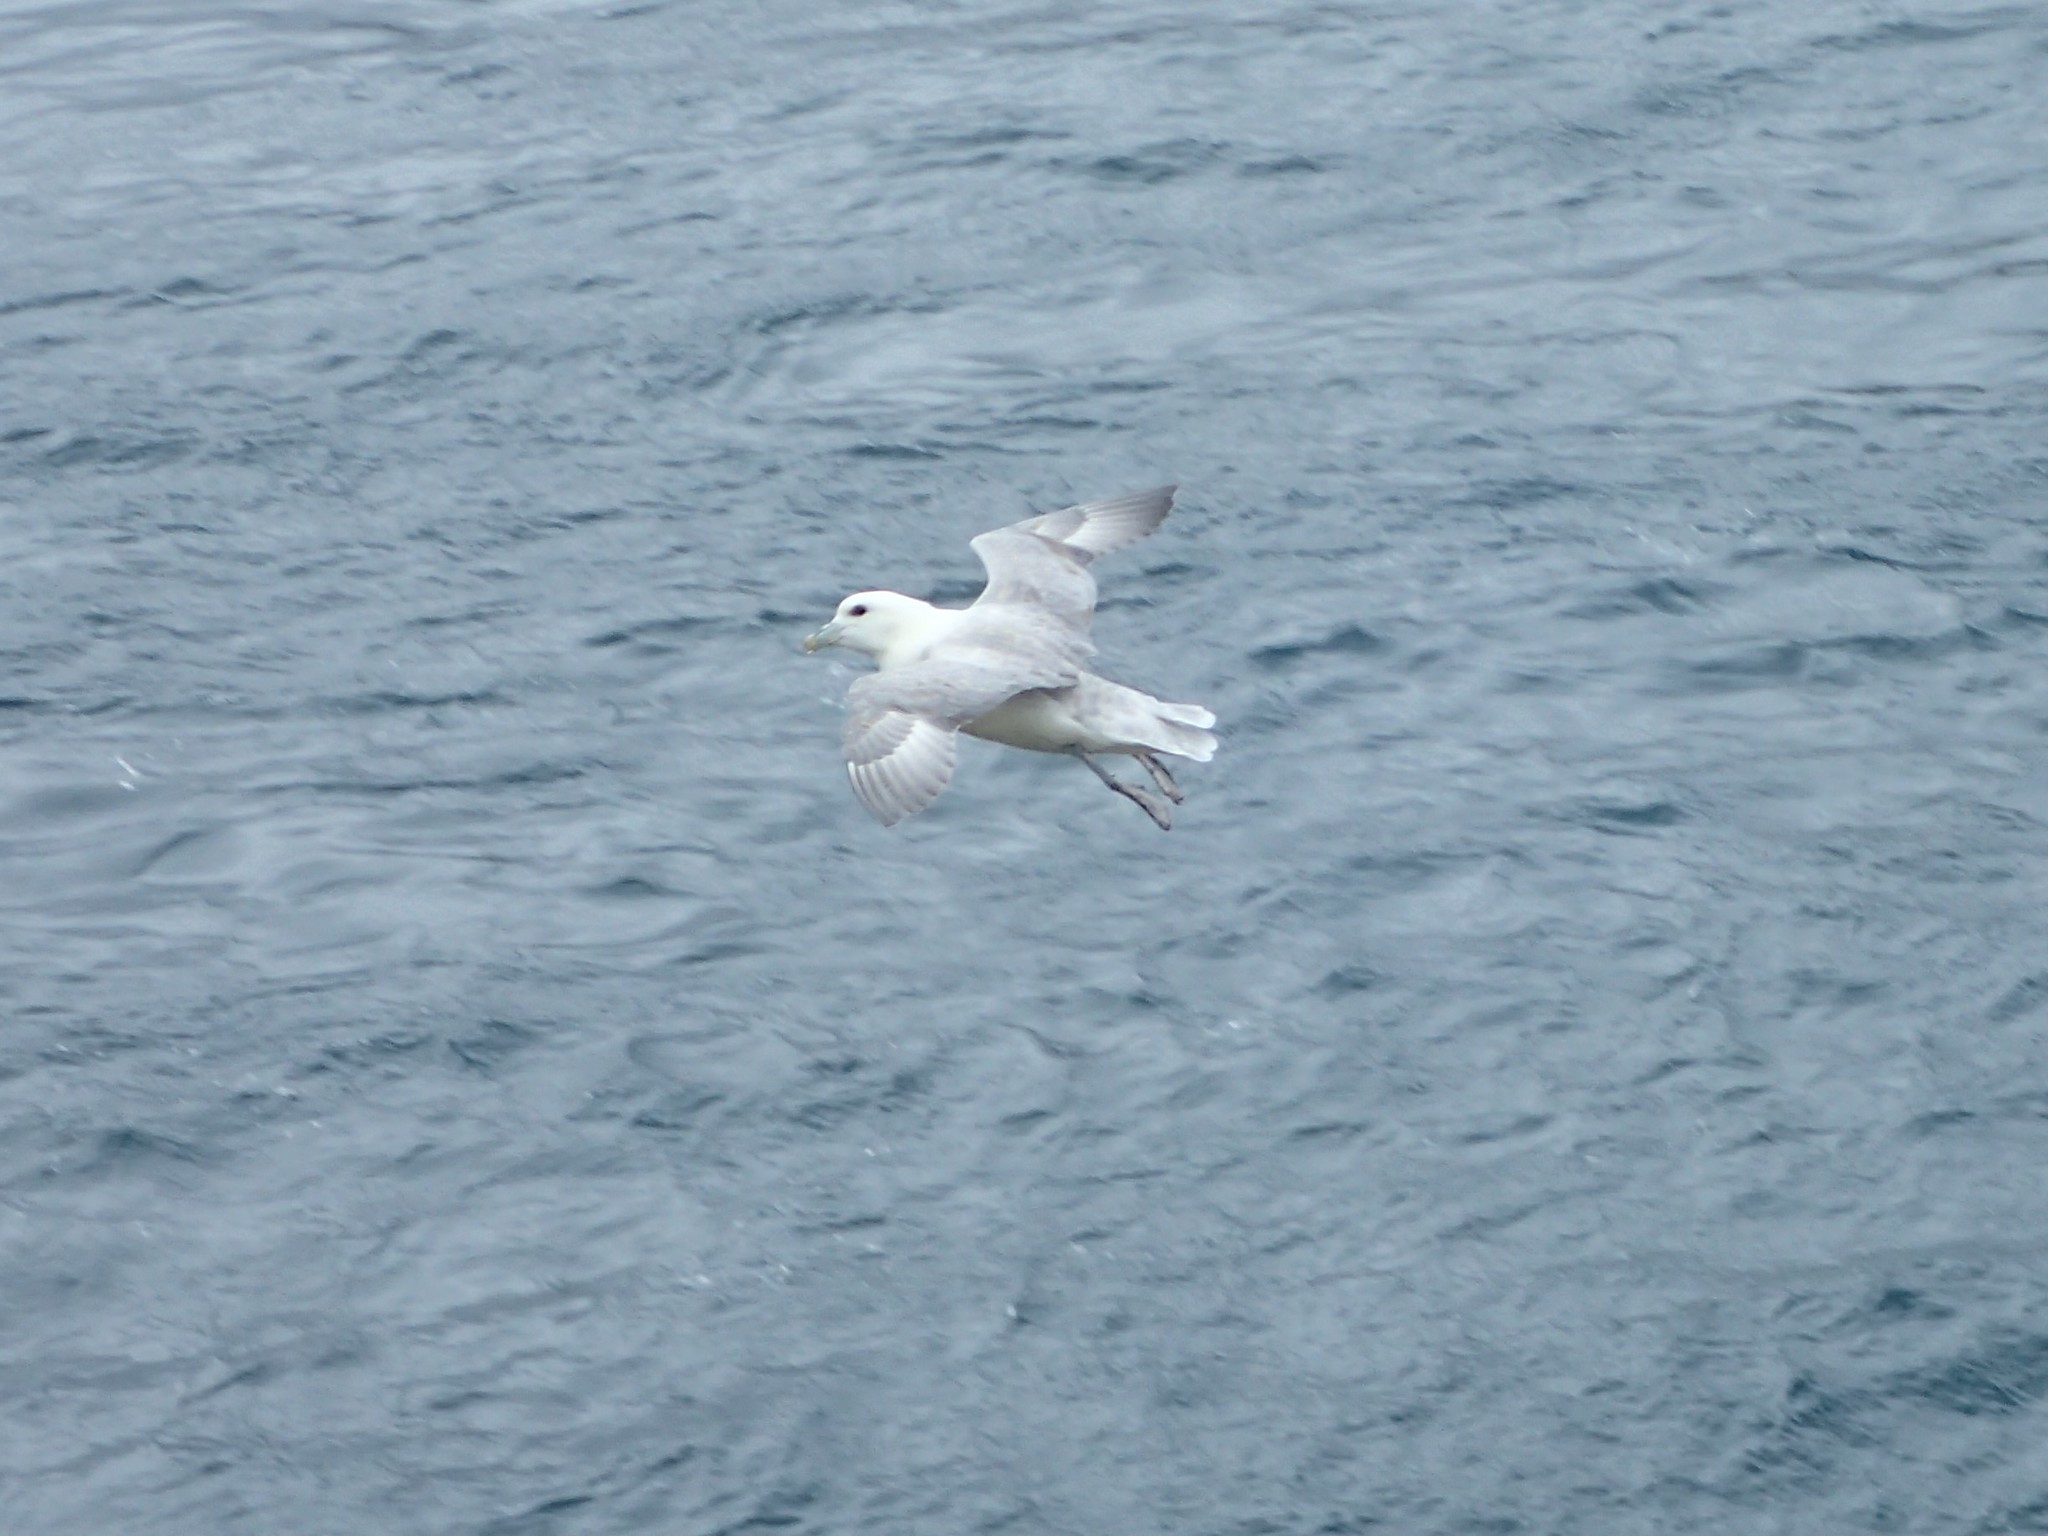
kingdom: Animalia
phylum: Chordata
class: Aves
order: Procellariiformes
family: Procellariidae
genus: Fulmarus
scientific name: Fulmarus glacialis
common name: Northern fulmar
